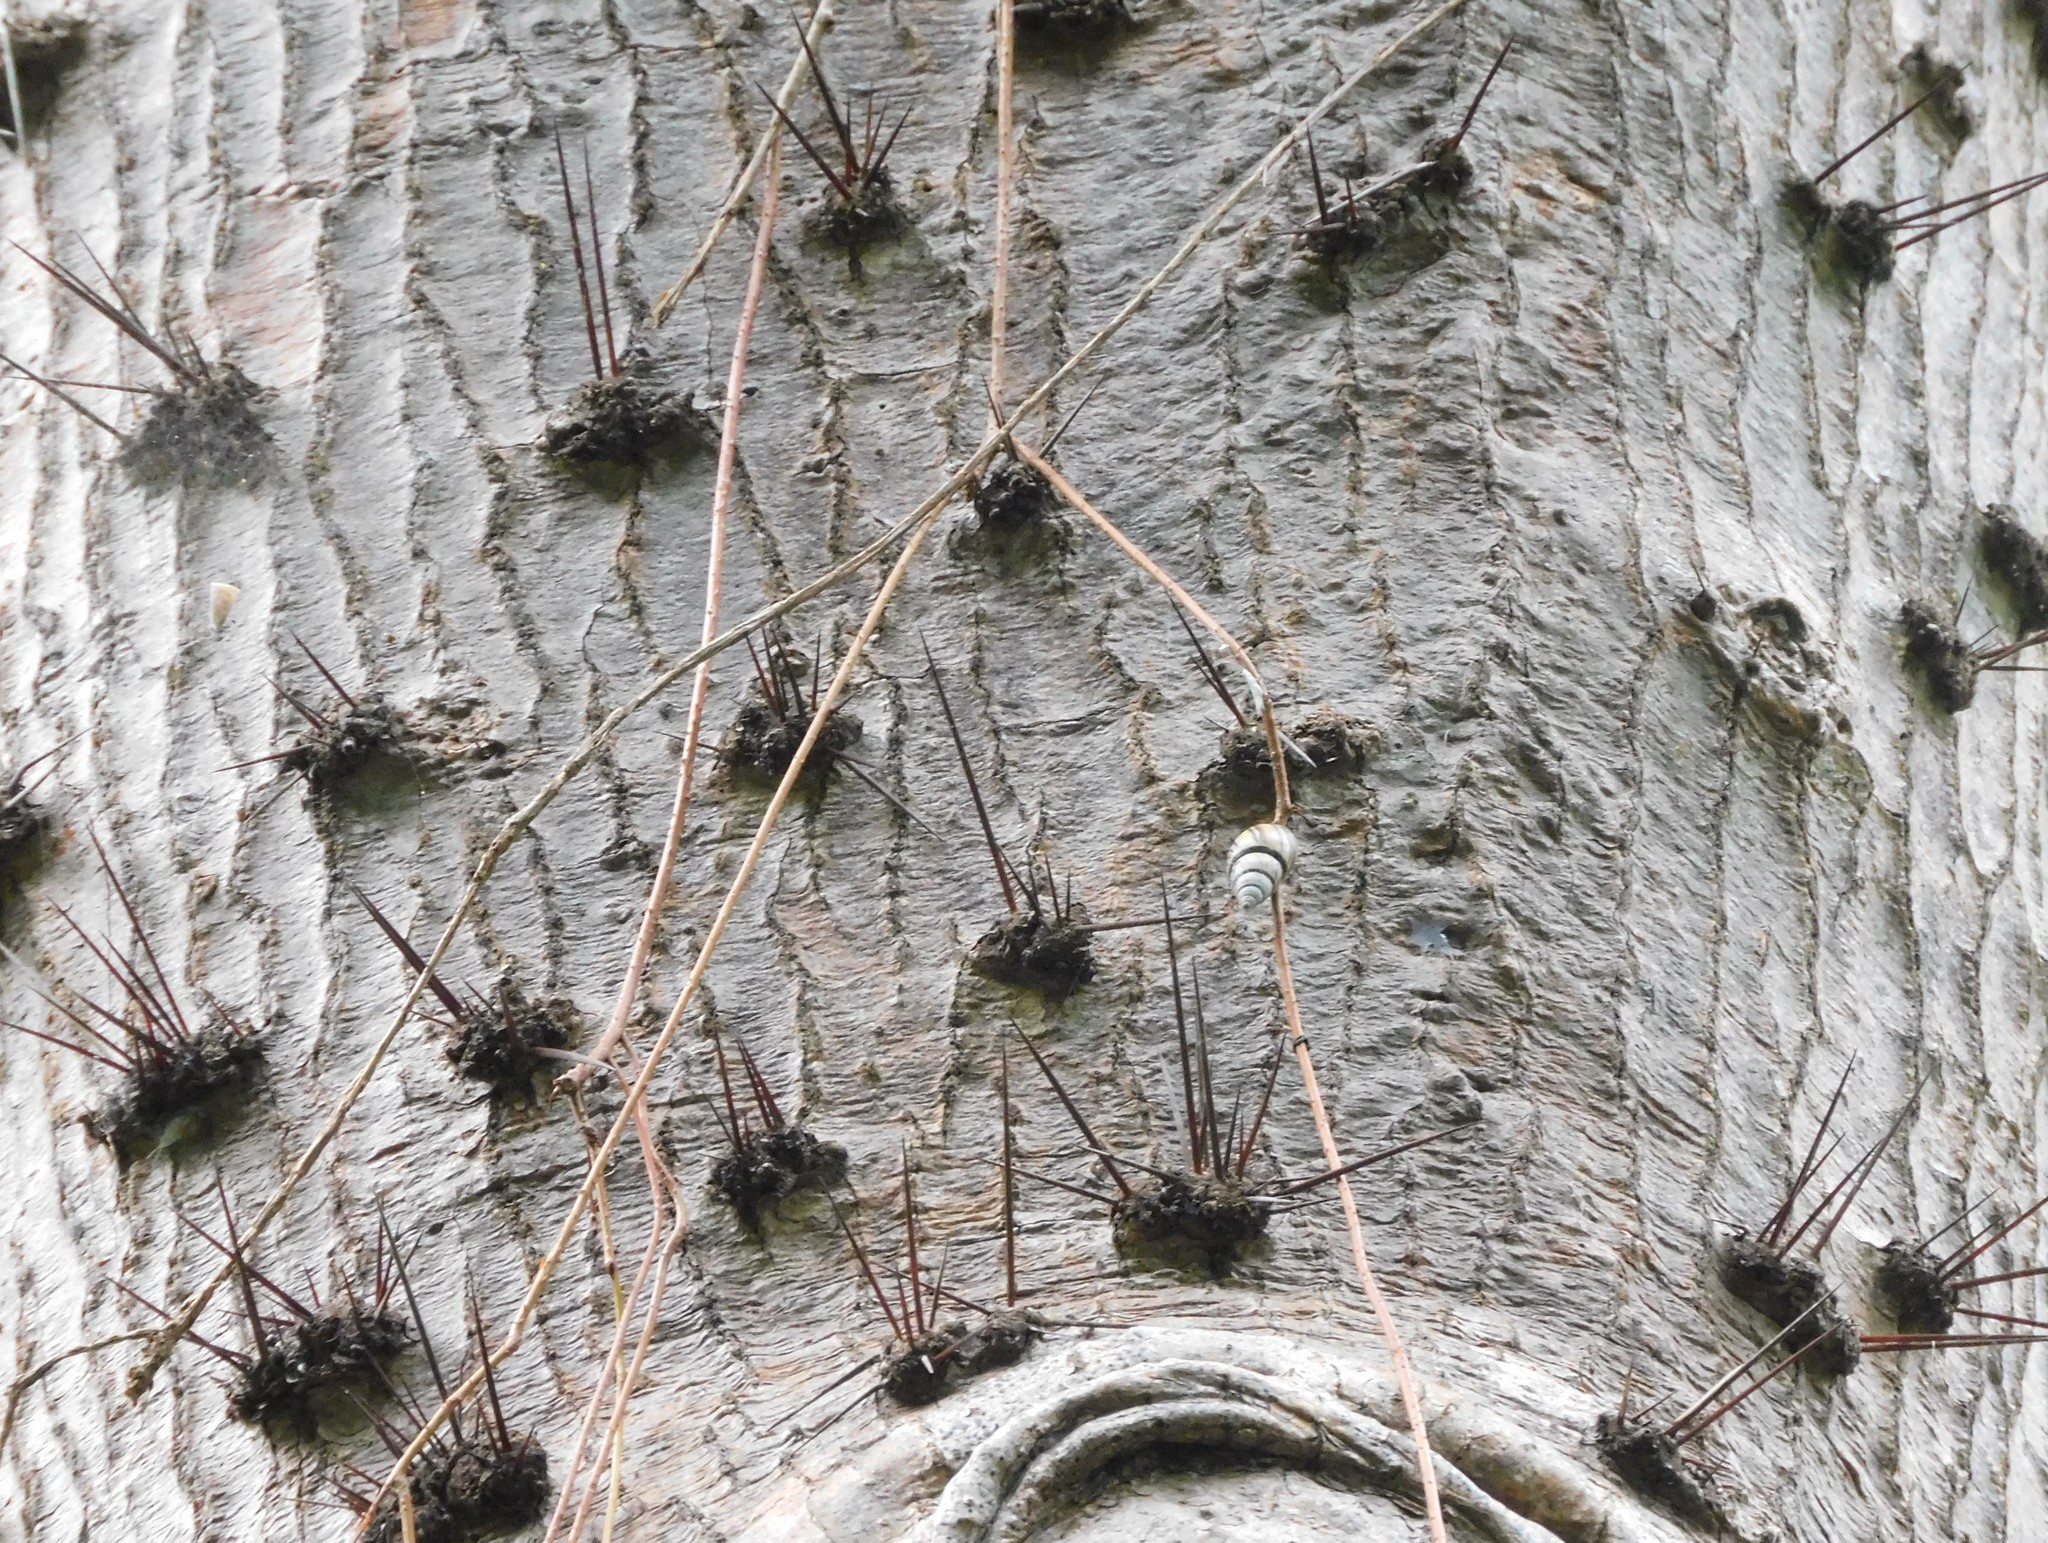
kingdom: Plantae
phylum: Tracheophyta
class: Magnoliopsida
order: Caryophyllales
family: Cactaceae
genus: Leuenbergeria
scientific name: Leuenbergeria guamacho
